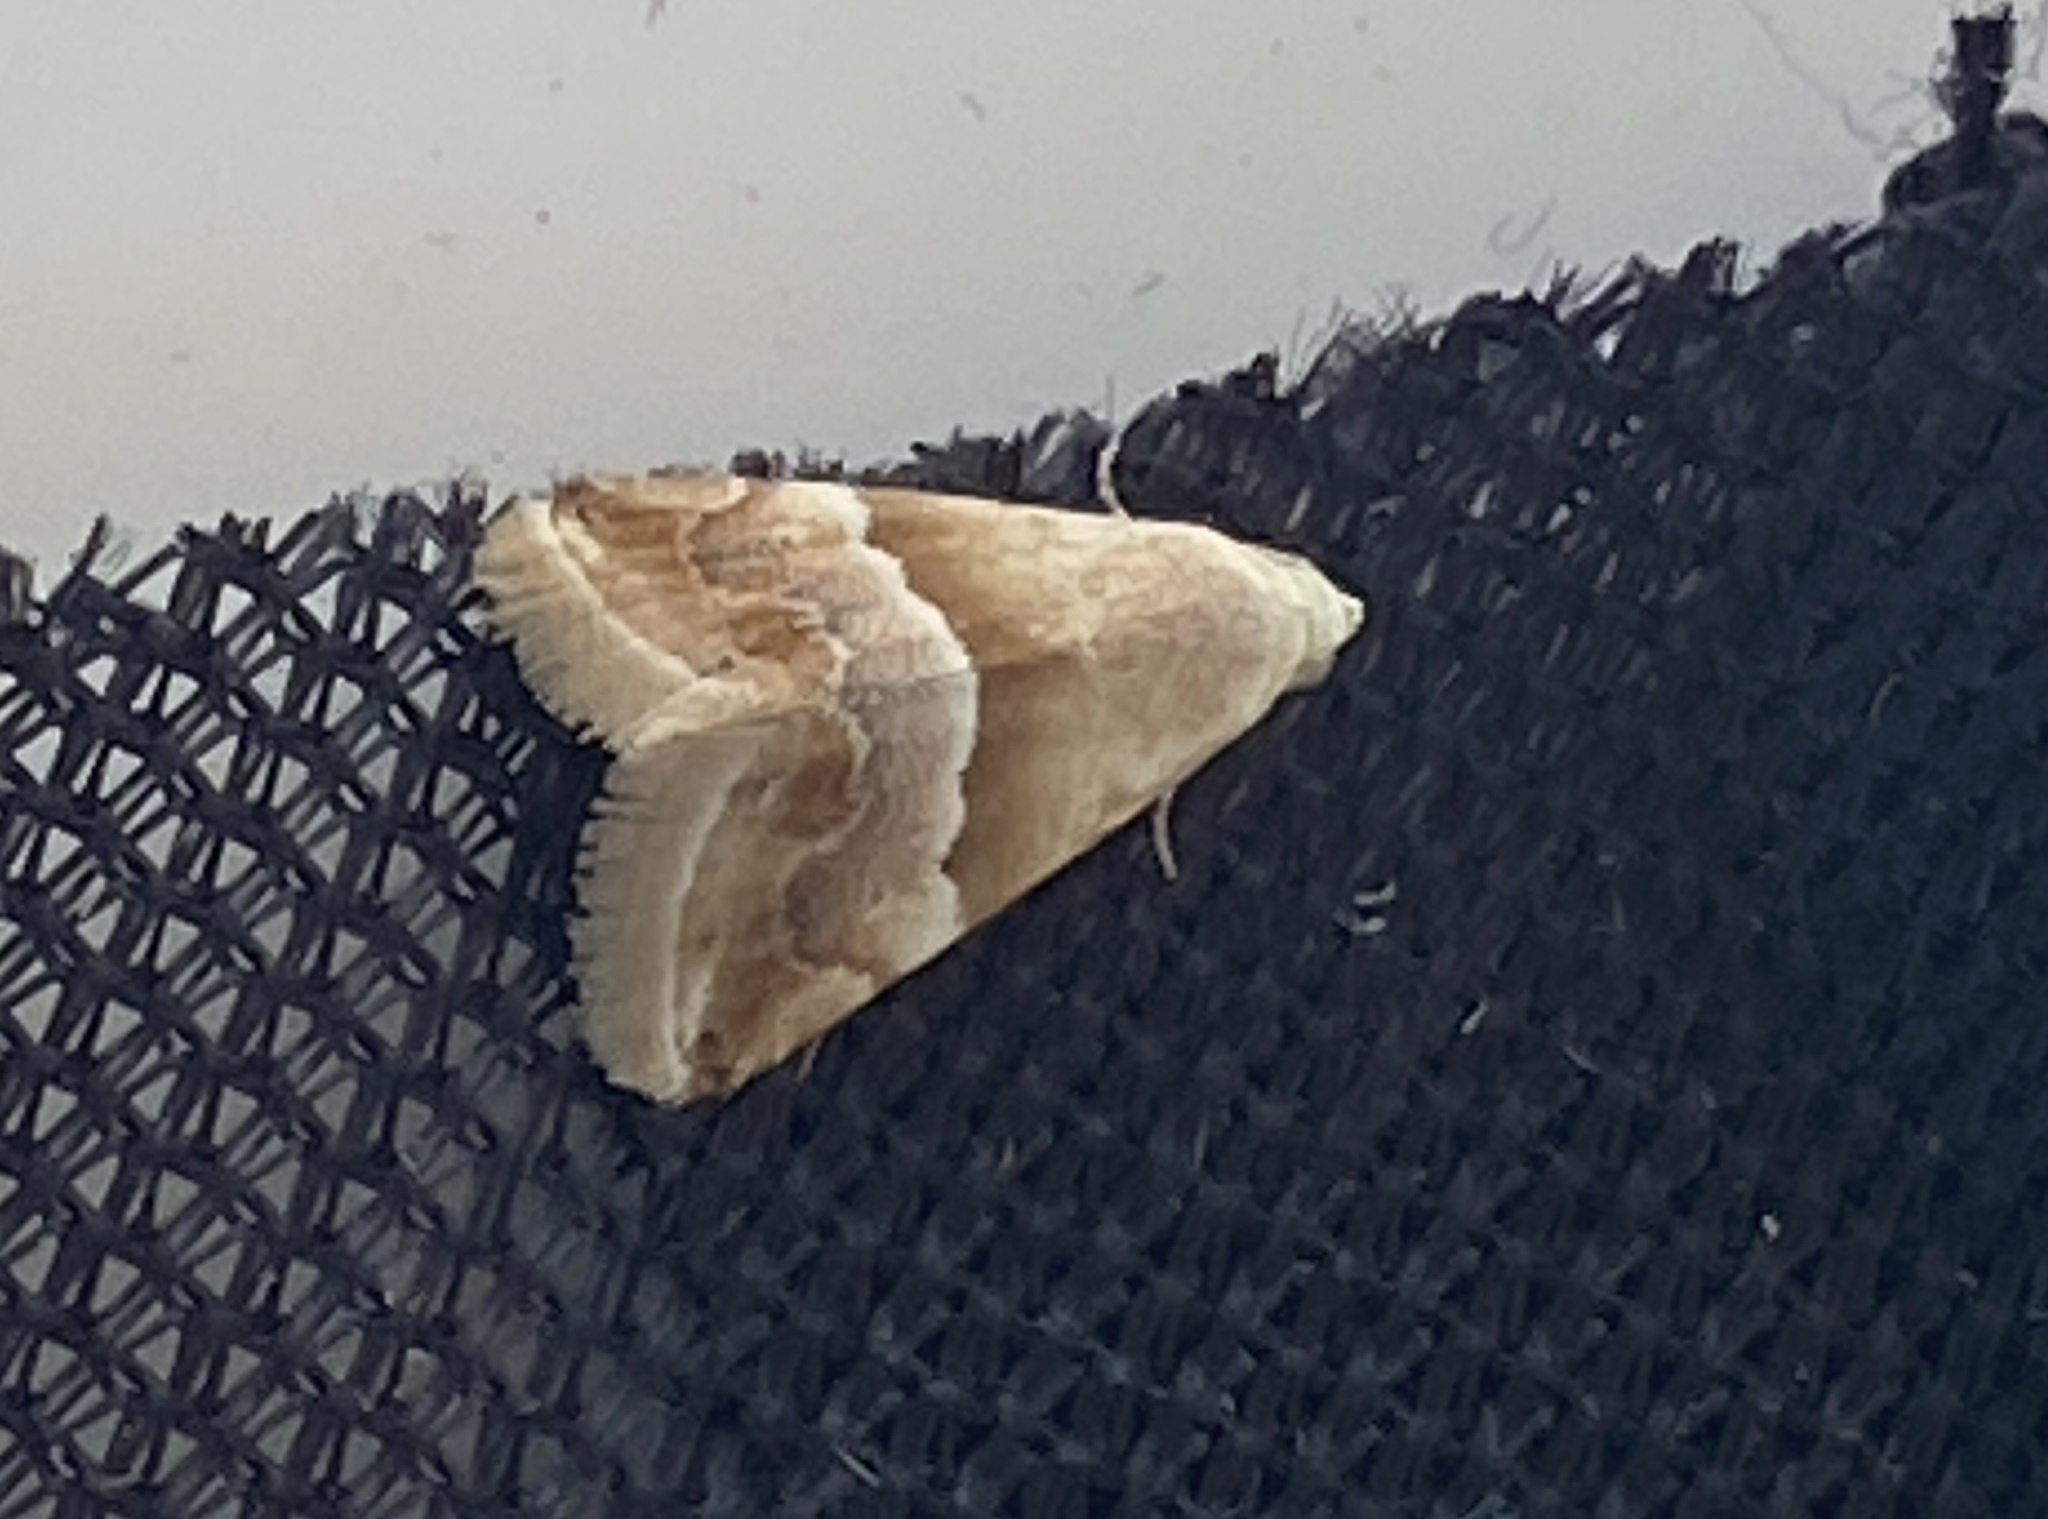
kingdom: Animalia
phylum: Arthropoda
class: Insecta
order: Lepidoptera
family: Noctuidae
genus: Eublemma
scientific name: Eublemma parva
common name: Small marbled
